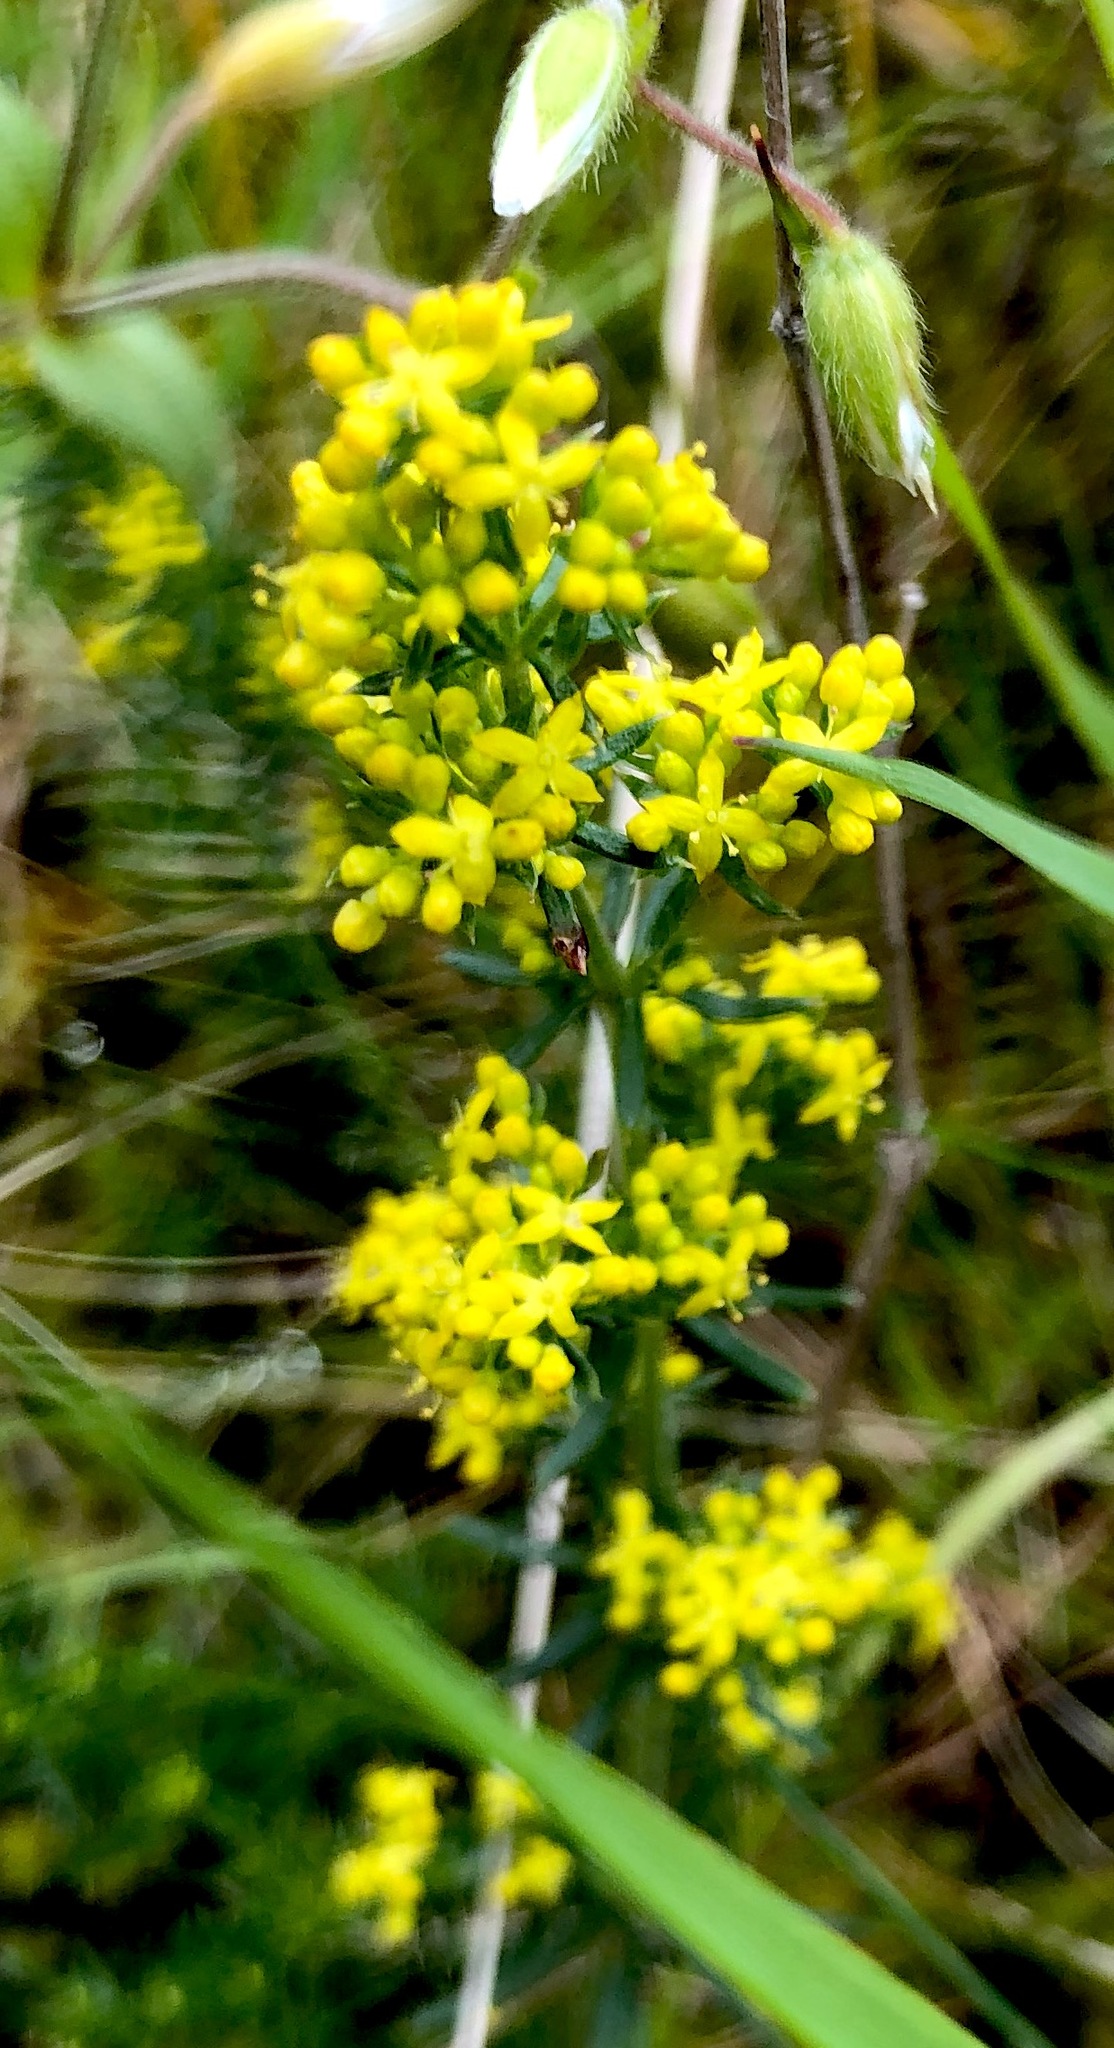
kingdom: Plantae
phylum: Tracheophyta
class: Magnoliopsida
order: Gentianales
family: Rubiaceae
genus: Galium
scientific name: Galium verum
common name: Lady's bedstraw
